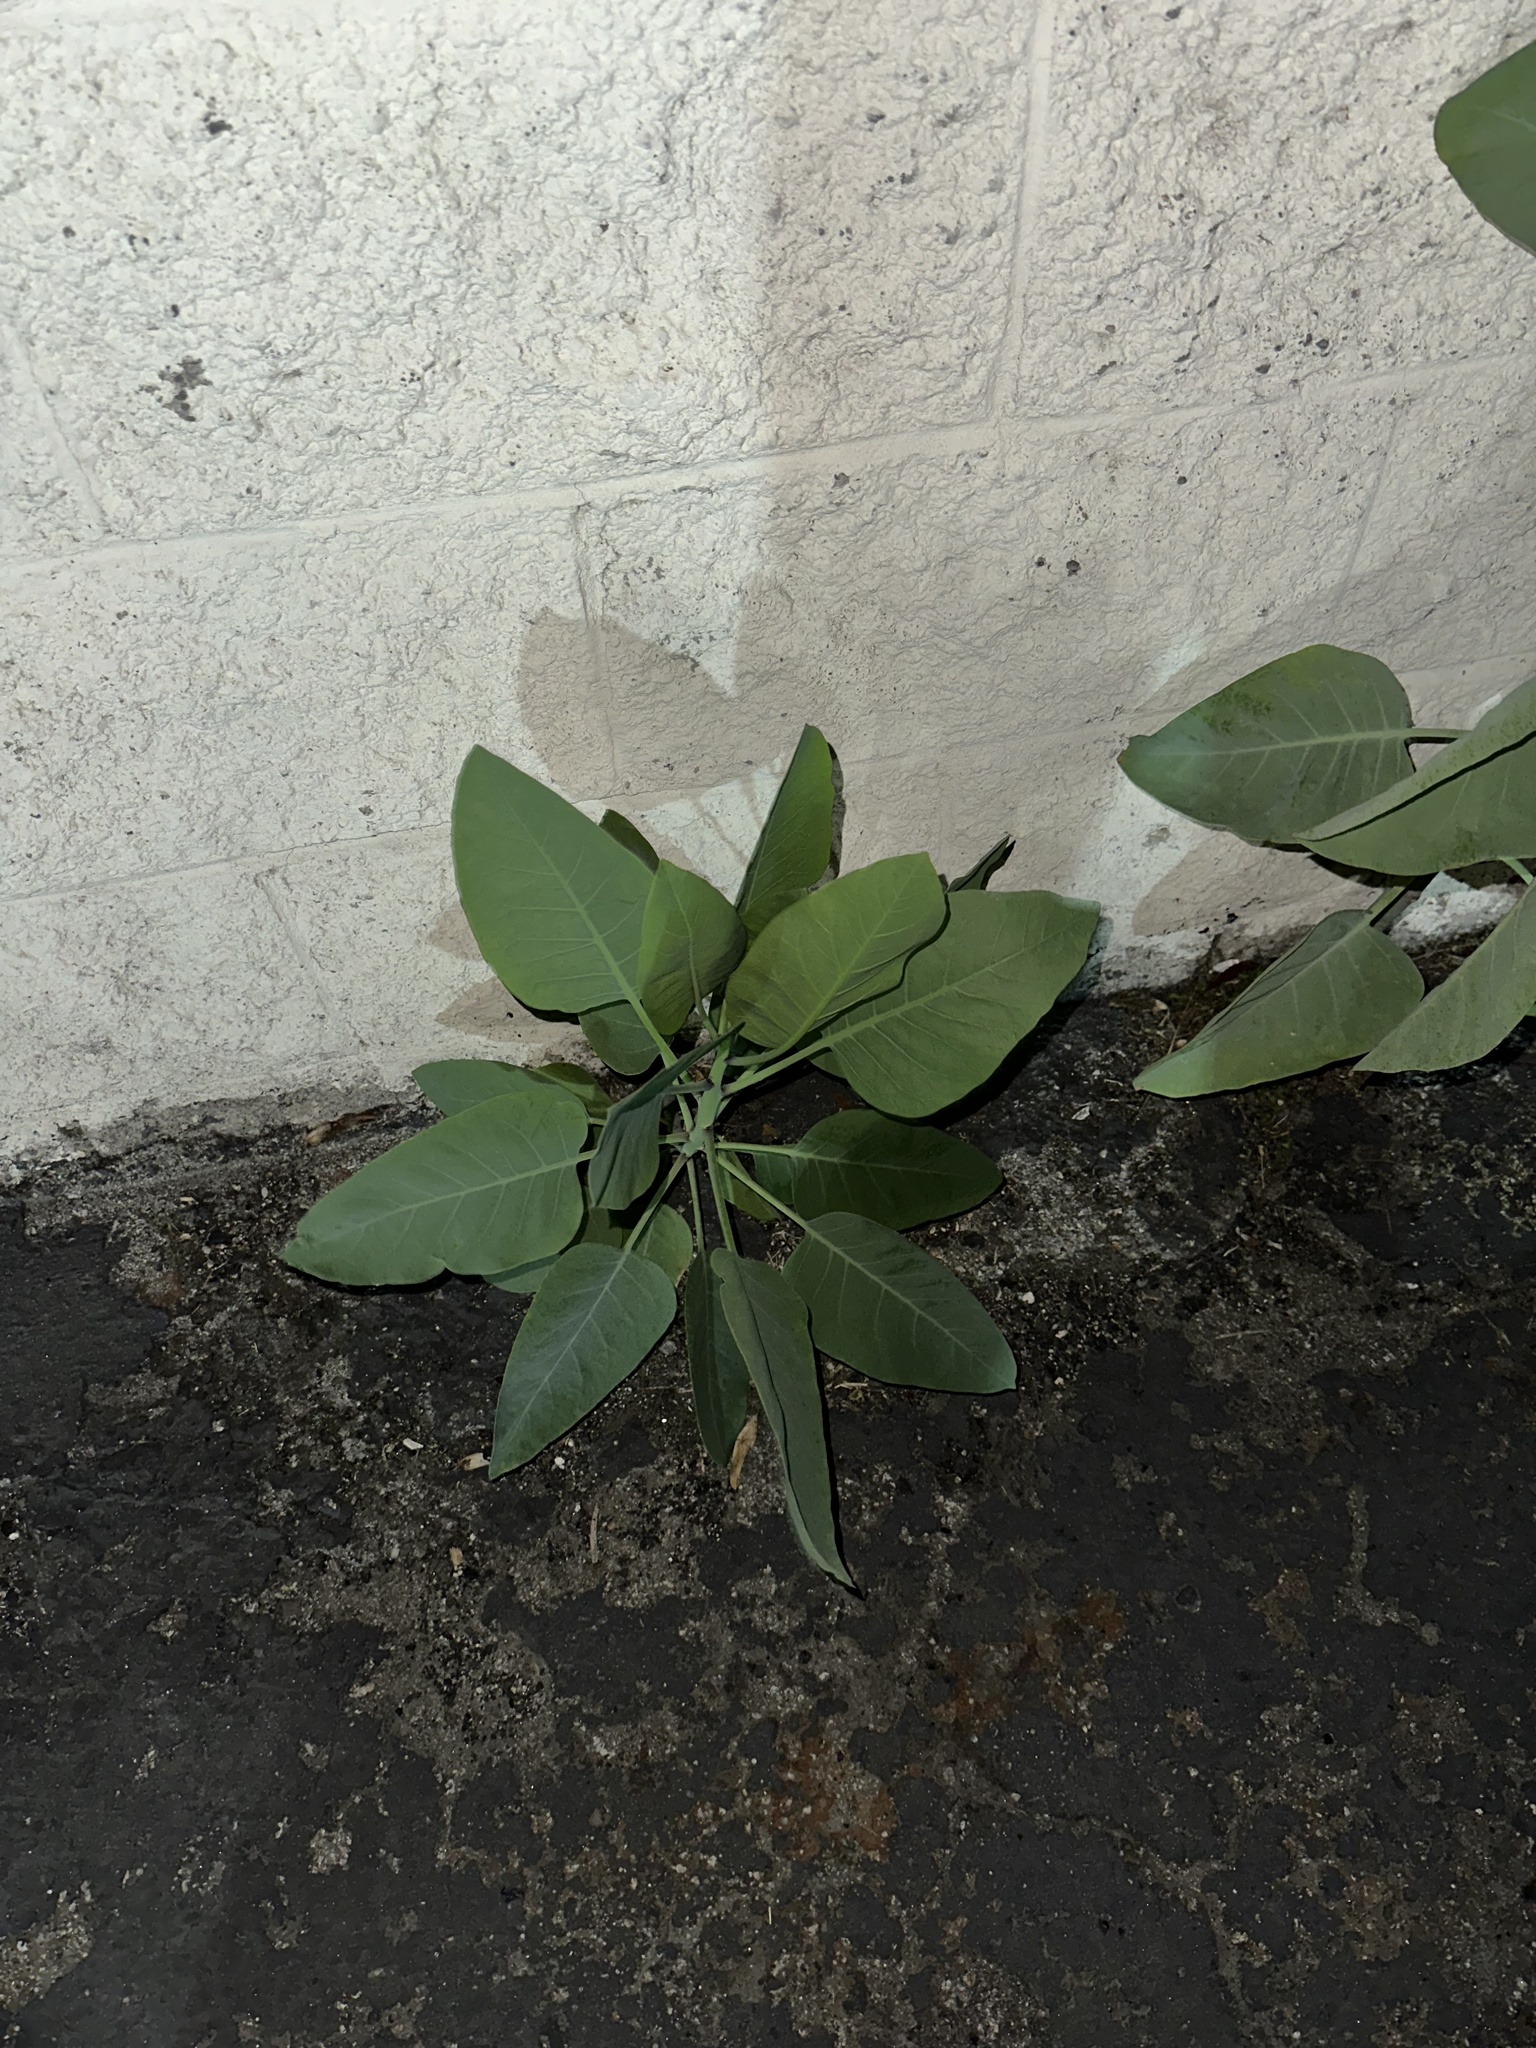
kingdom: Plantae
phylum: Tracheophyta
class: Magnoliopsida
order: Solanales
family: Solanaceae
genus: Nicotiana
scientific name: Nicotiana glauca
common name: Tree tobacco
